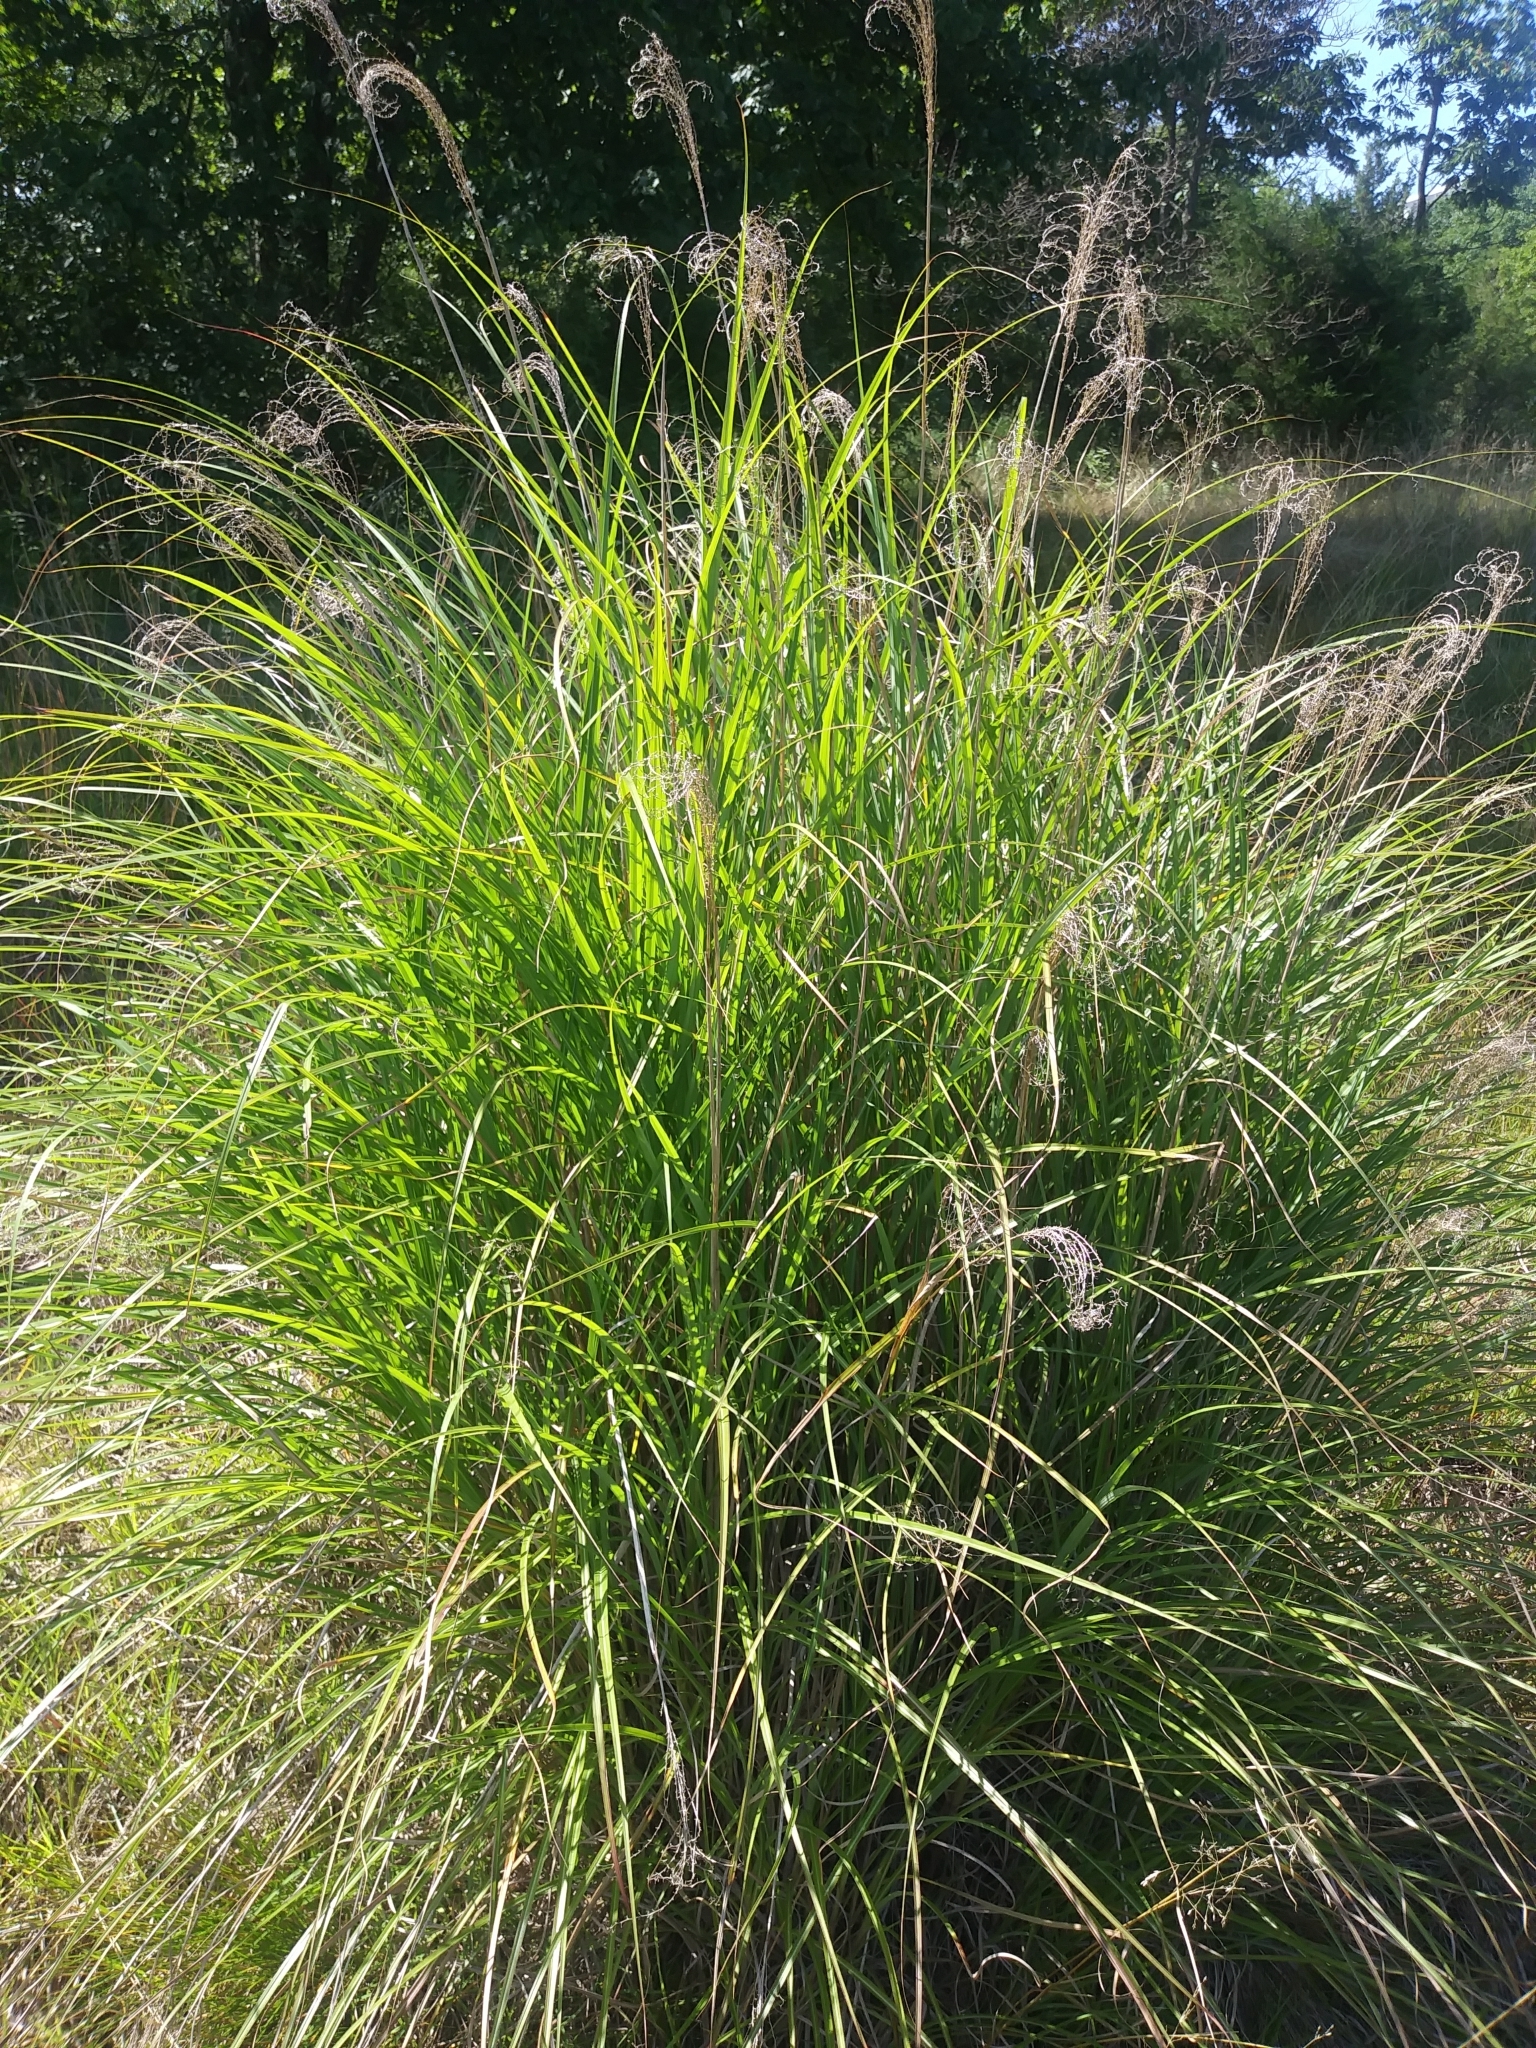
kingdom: Plantae
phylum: Tracheophyta
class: Liliopsida
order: Poales
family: Poaceae
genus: Miscanthus
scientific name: Miscanthus sinensis
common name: Chinese silvergrass
